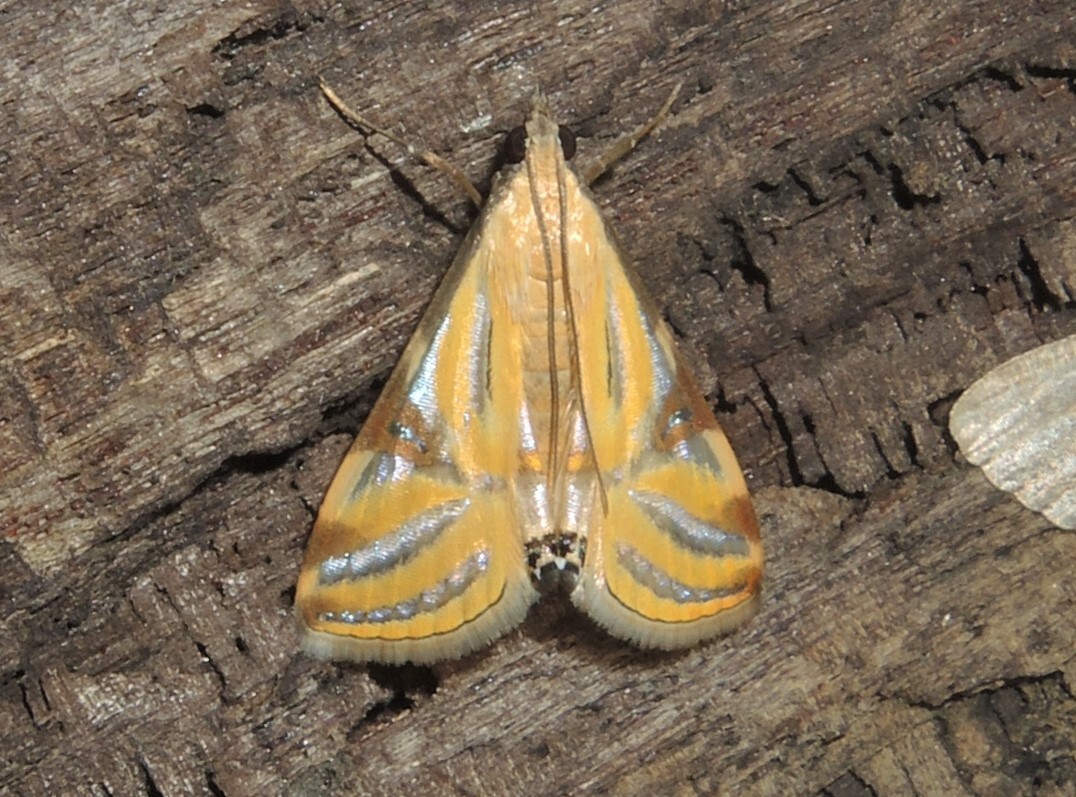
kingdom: Animalia
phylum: Arthropoda
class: Insecta
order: Lepidoptera
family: Crambidae
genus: Talanga
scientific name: Talanga sexpunctalis
